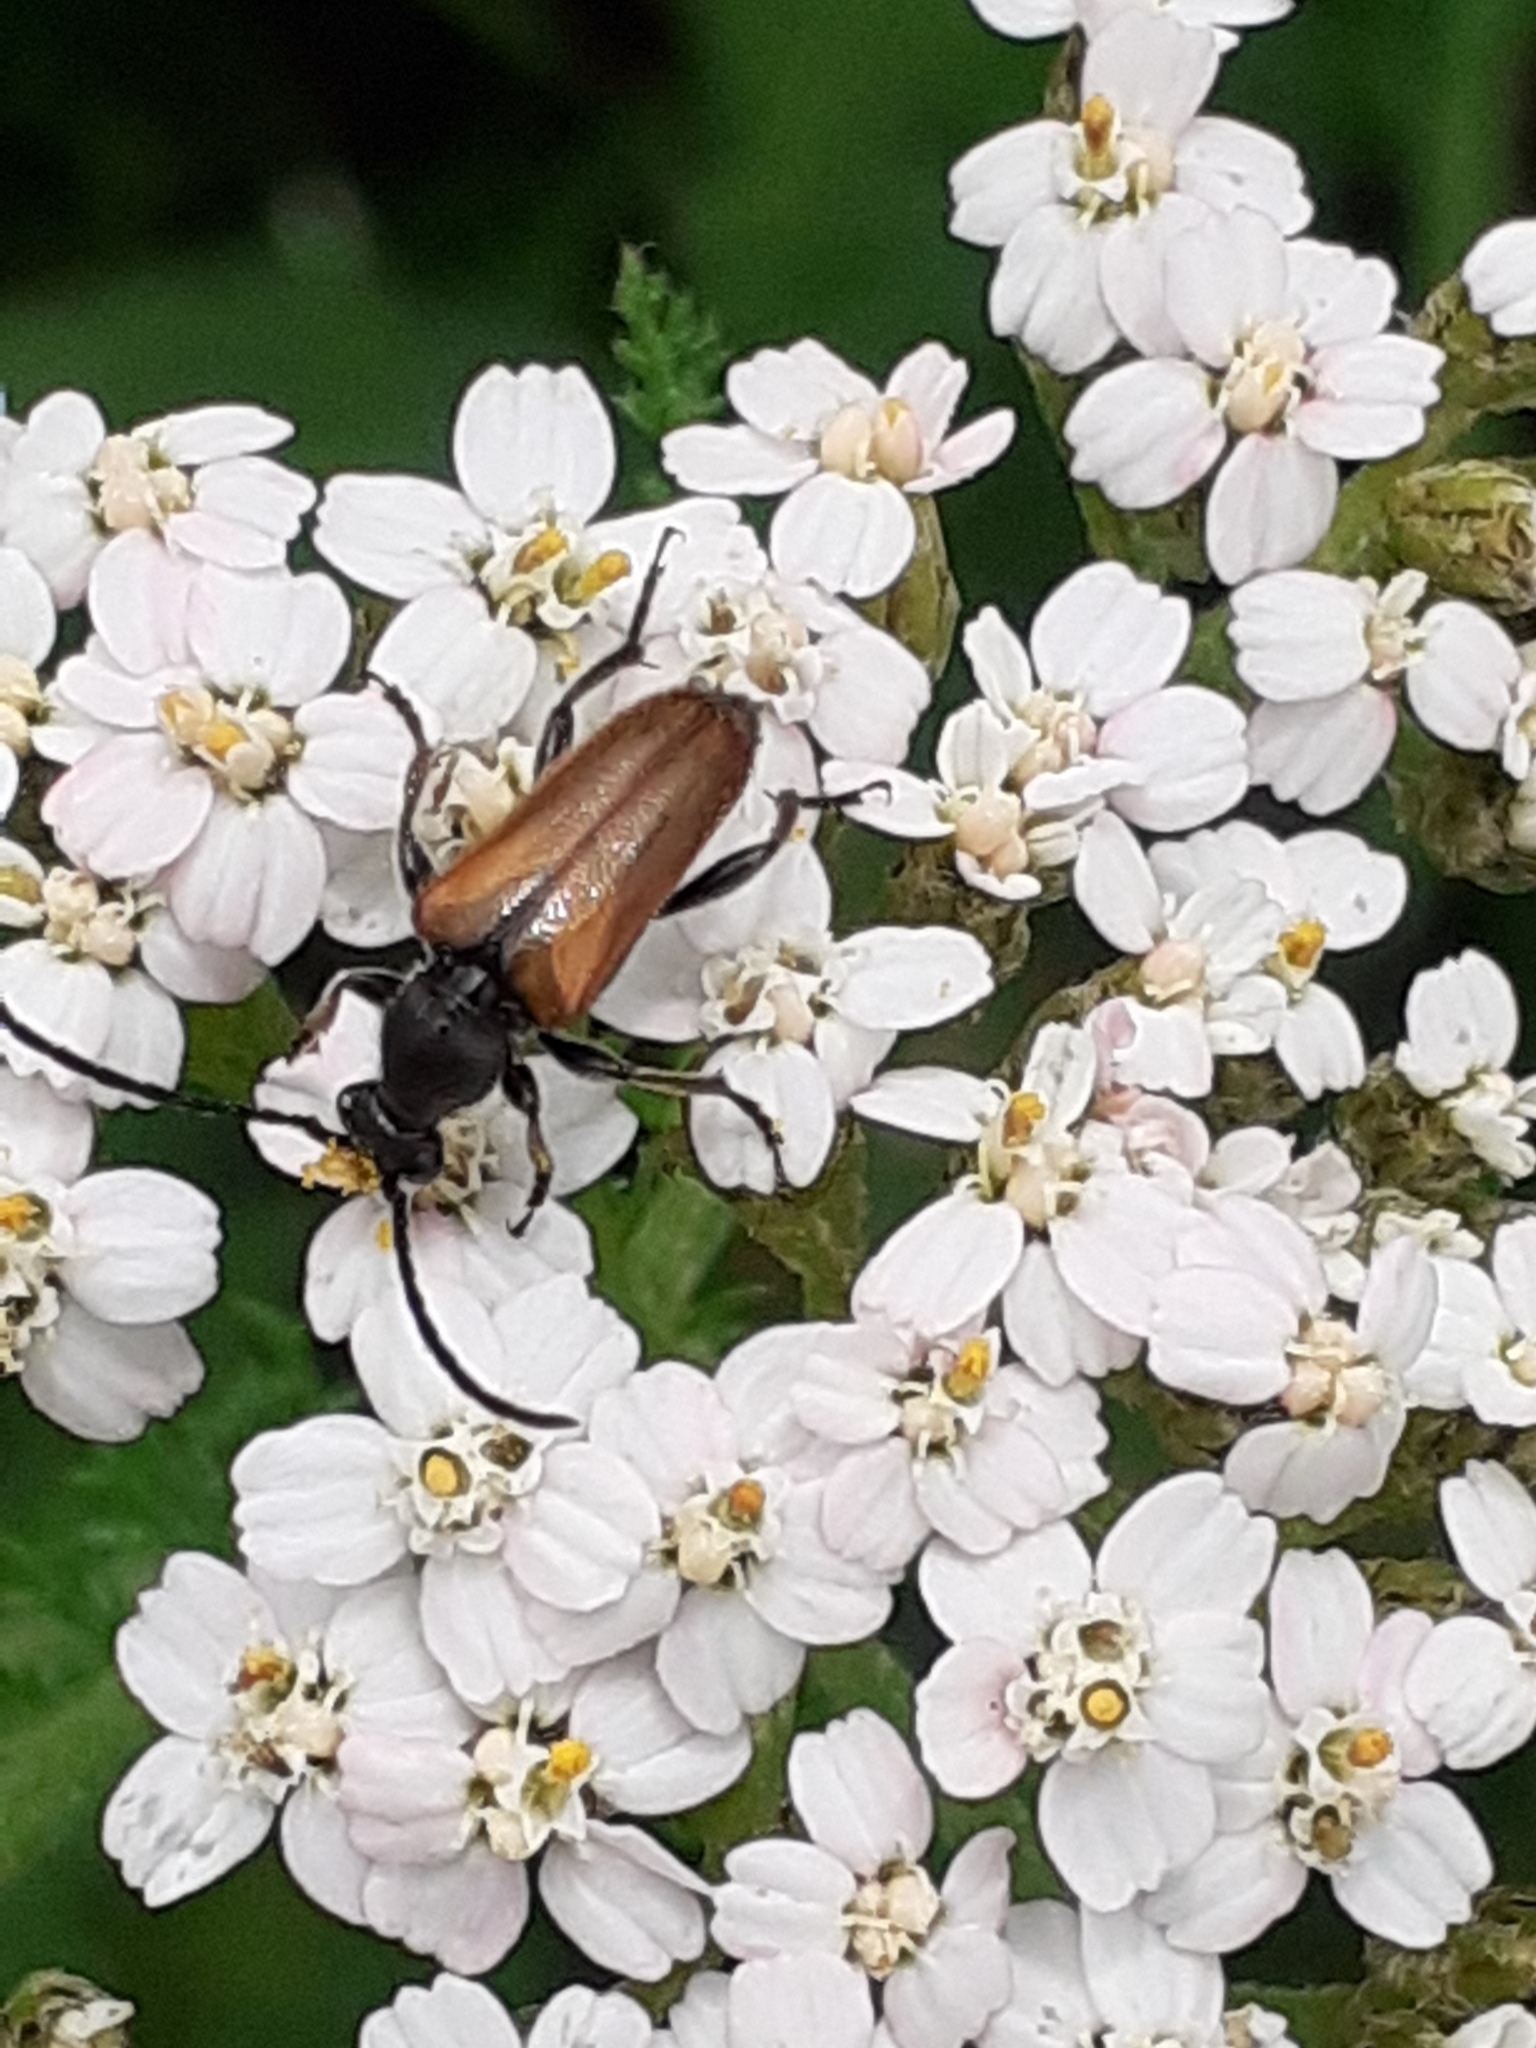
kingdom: Animalia
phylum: Arthropoda
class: Insecta
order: Coleoptera
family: Cerambycidae
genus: Pseudovadonia
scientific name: Pseudovadonia livida
